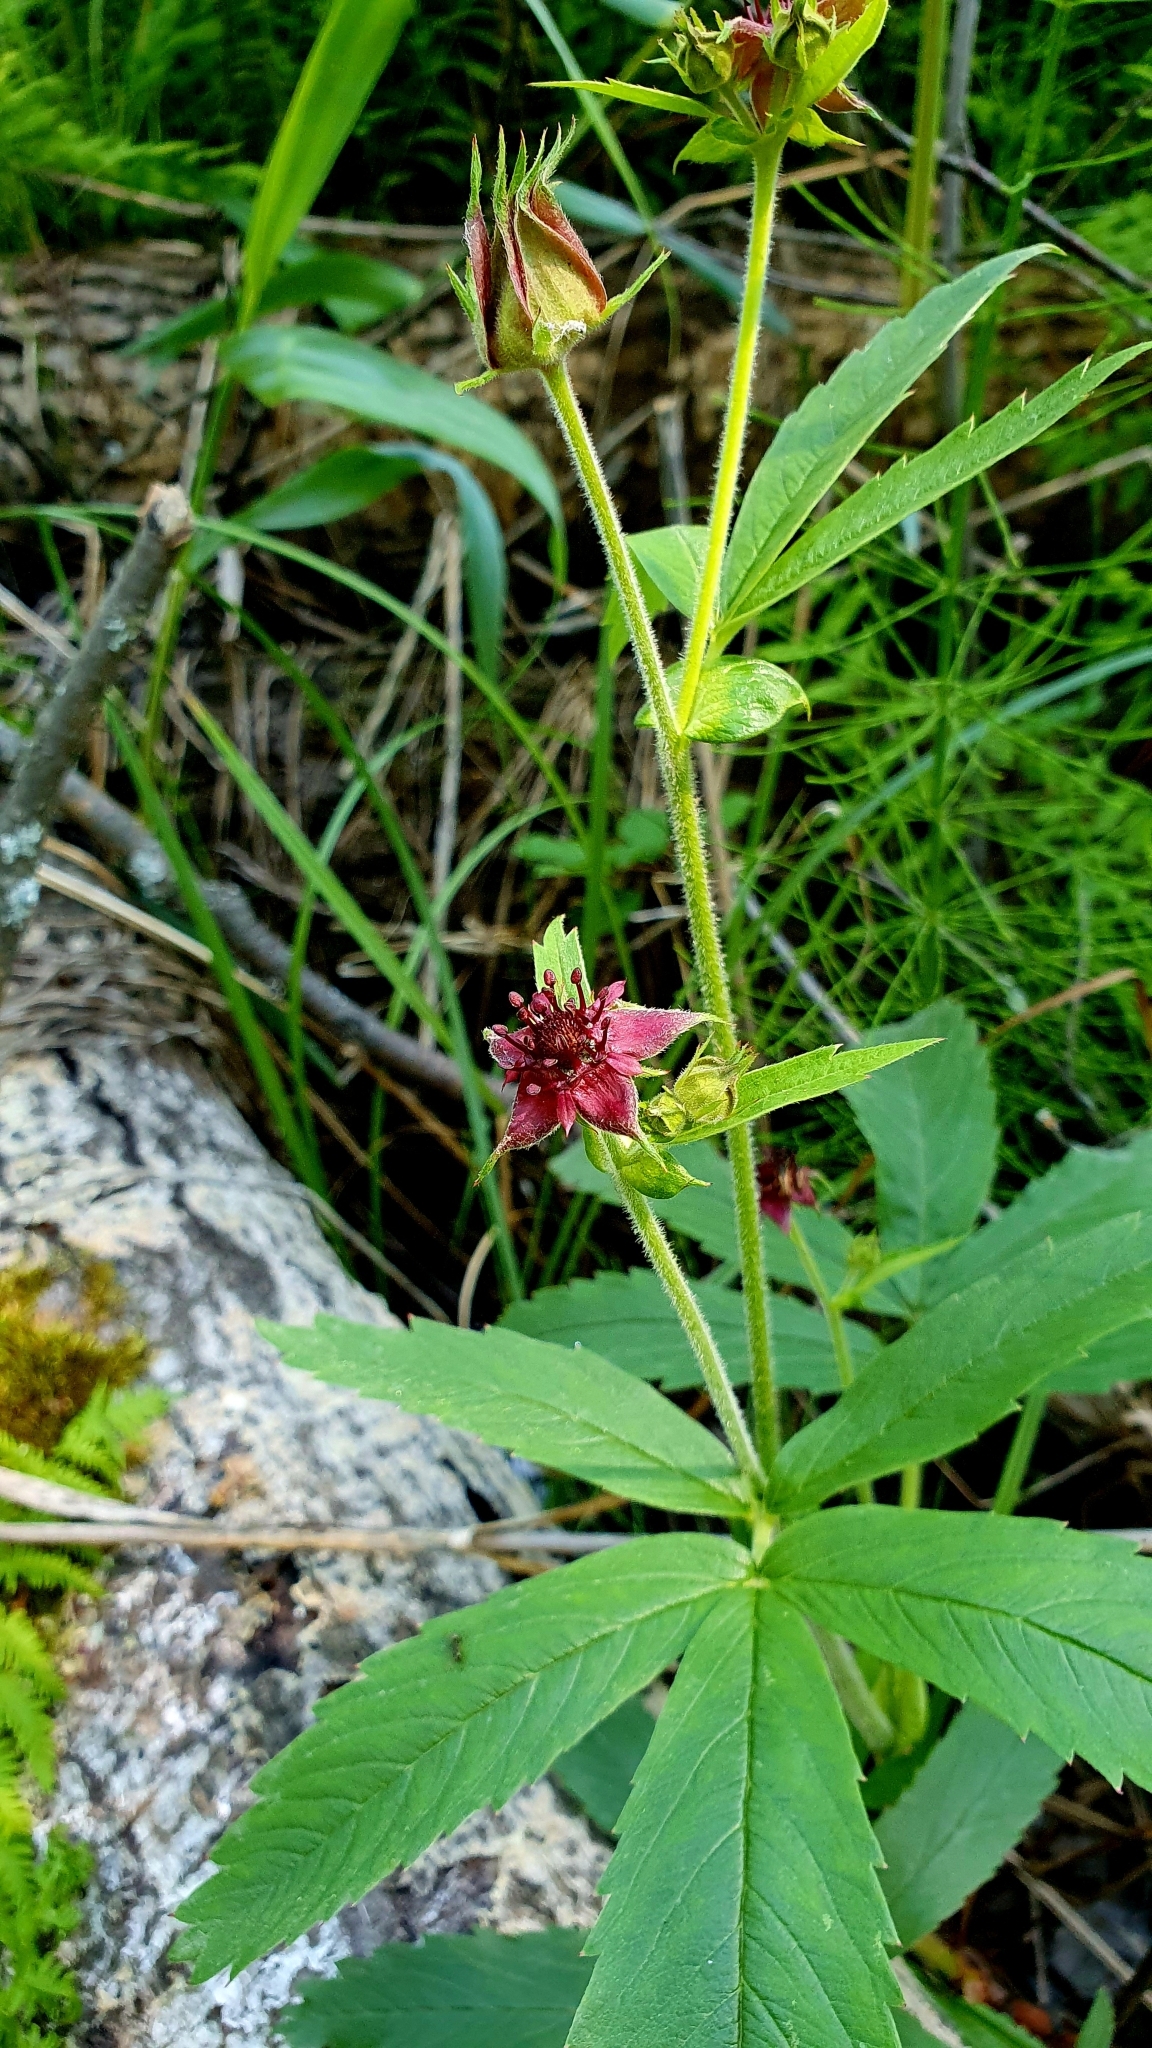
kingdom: Plantae
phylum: Tracheophyta
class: Magnoliopsida
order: Rosales
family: Rosaceae
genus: Comarum
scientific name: Comarum palustre
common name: Marsh cinquefoil
